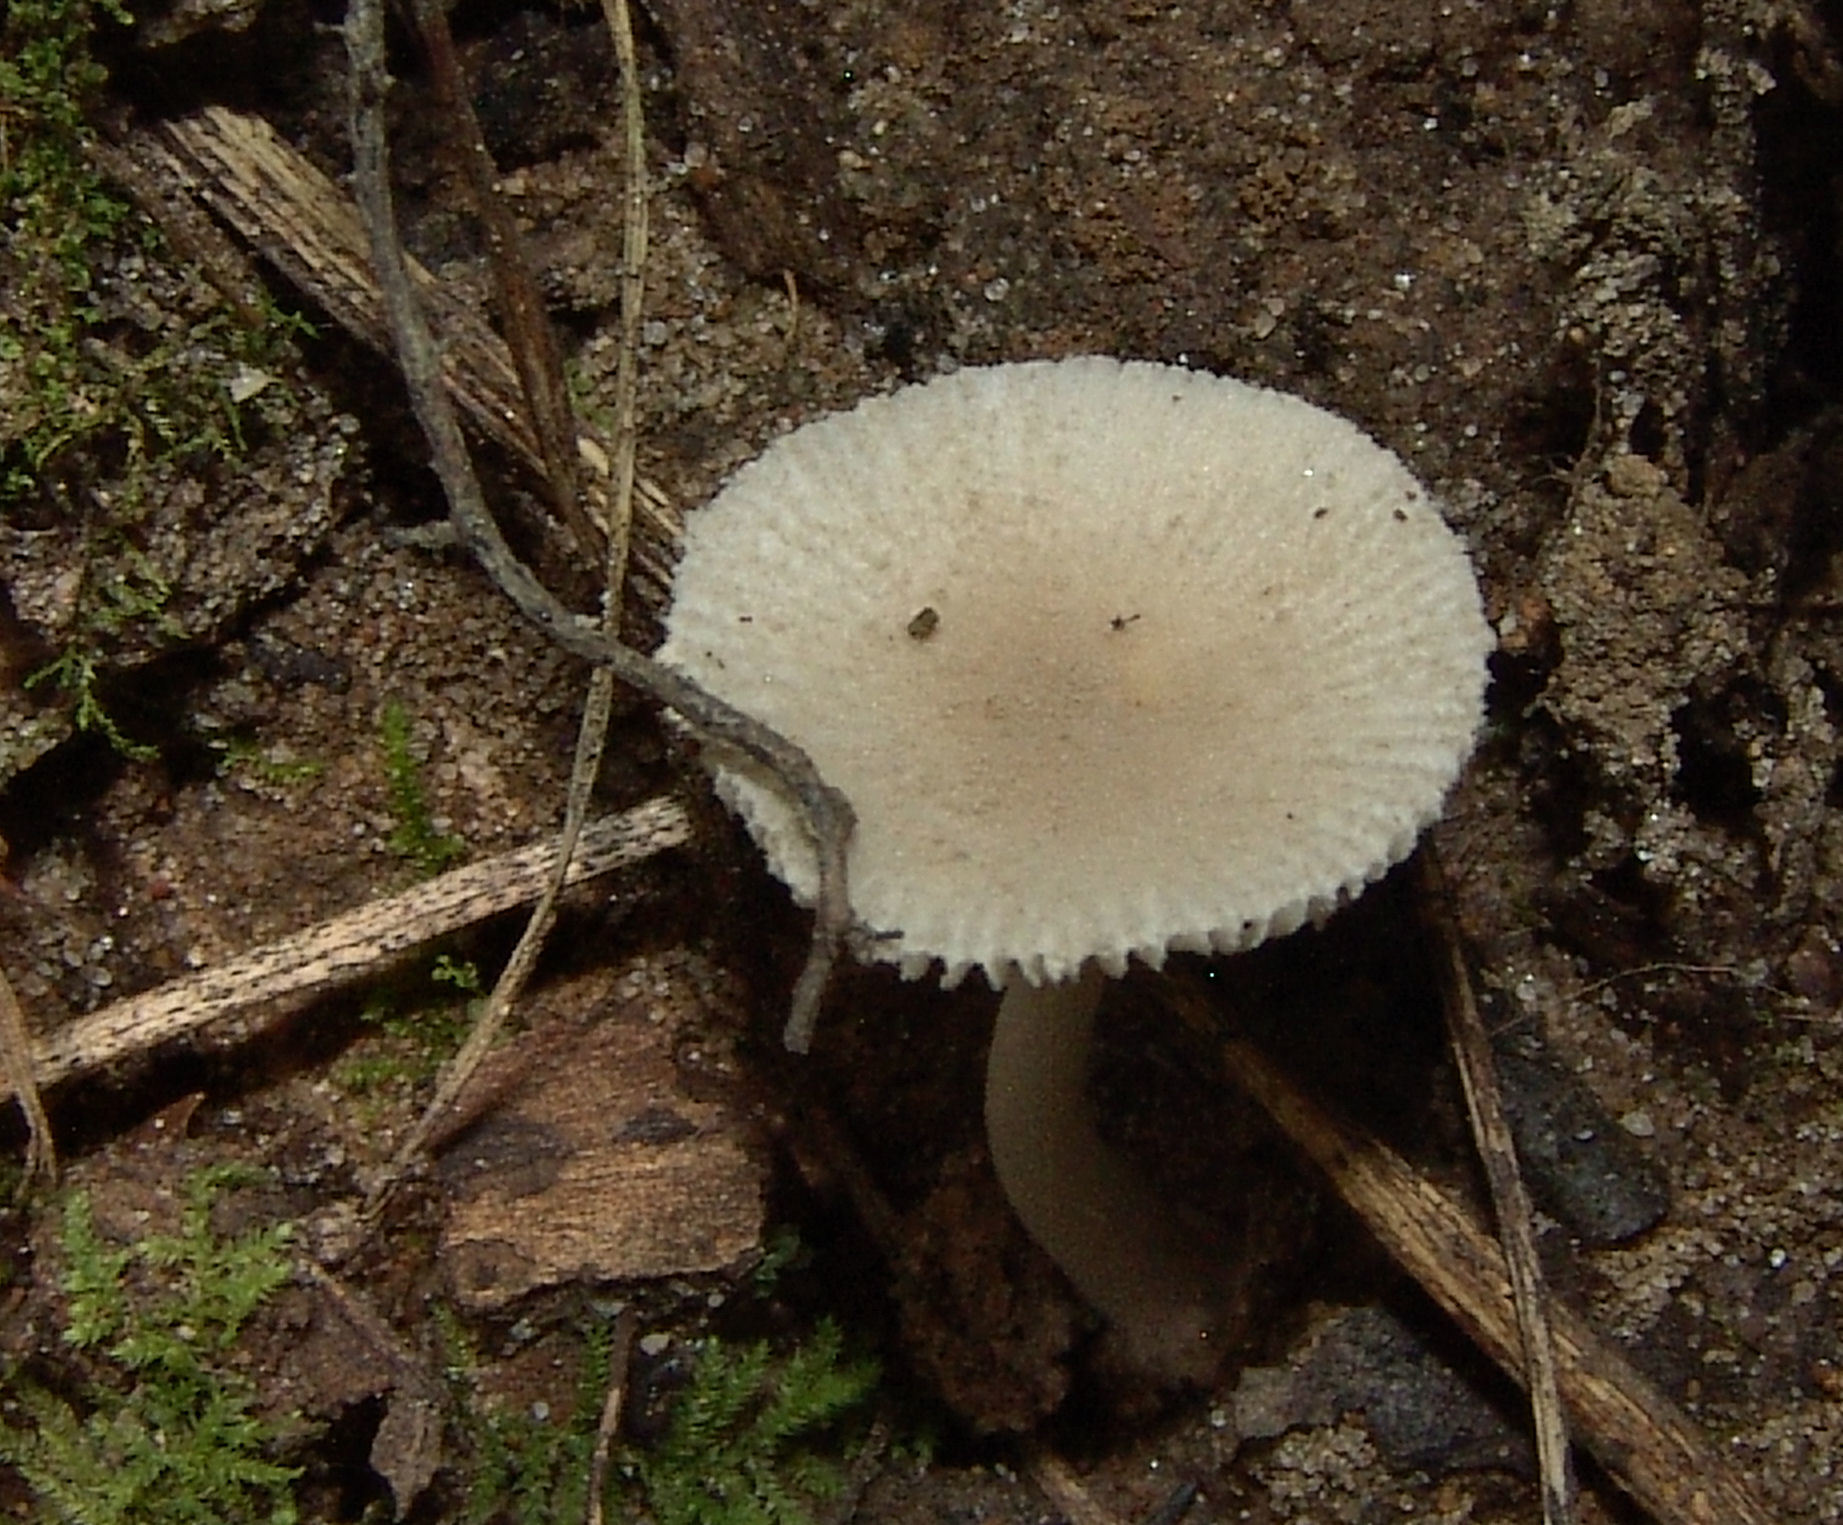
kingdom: Fungi
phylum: Basidiomycota
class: Agaricomycetes
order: Agaricales
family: Amanitaceae
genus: Amanita
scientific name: Amanita farinosa
